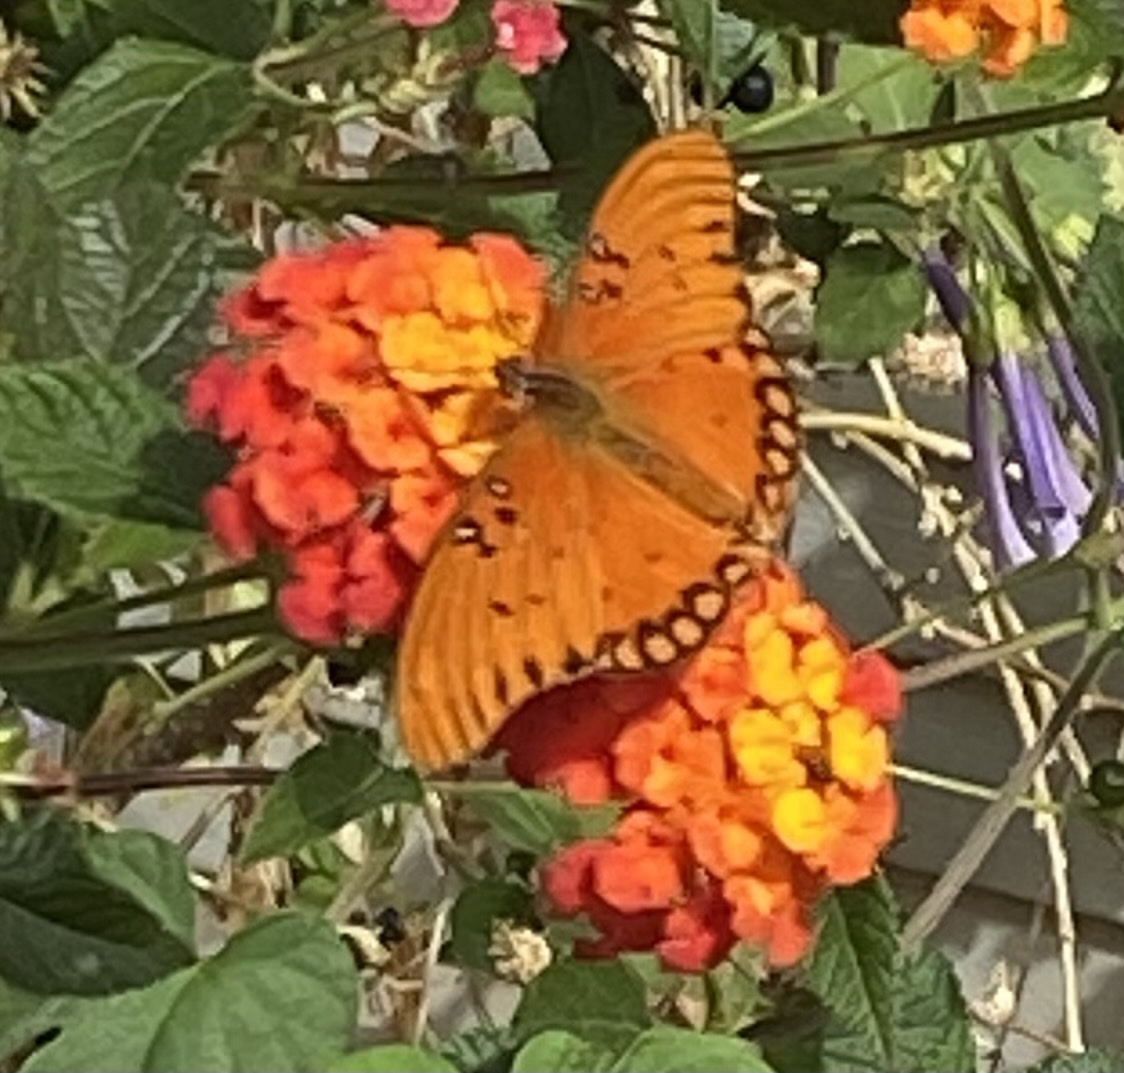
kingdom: Animalia
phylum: Arthropoda
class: Insecta
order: Lepidoptera
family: Nymphalidae
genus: Dione
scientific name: Dione vanillae
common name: Gulf fritillary
